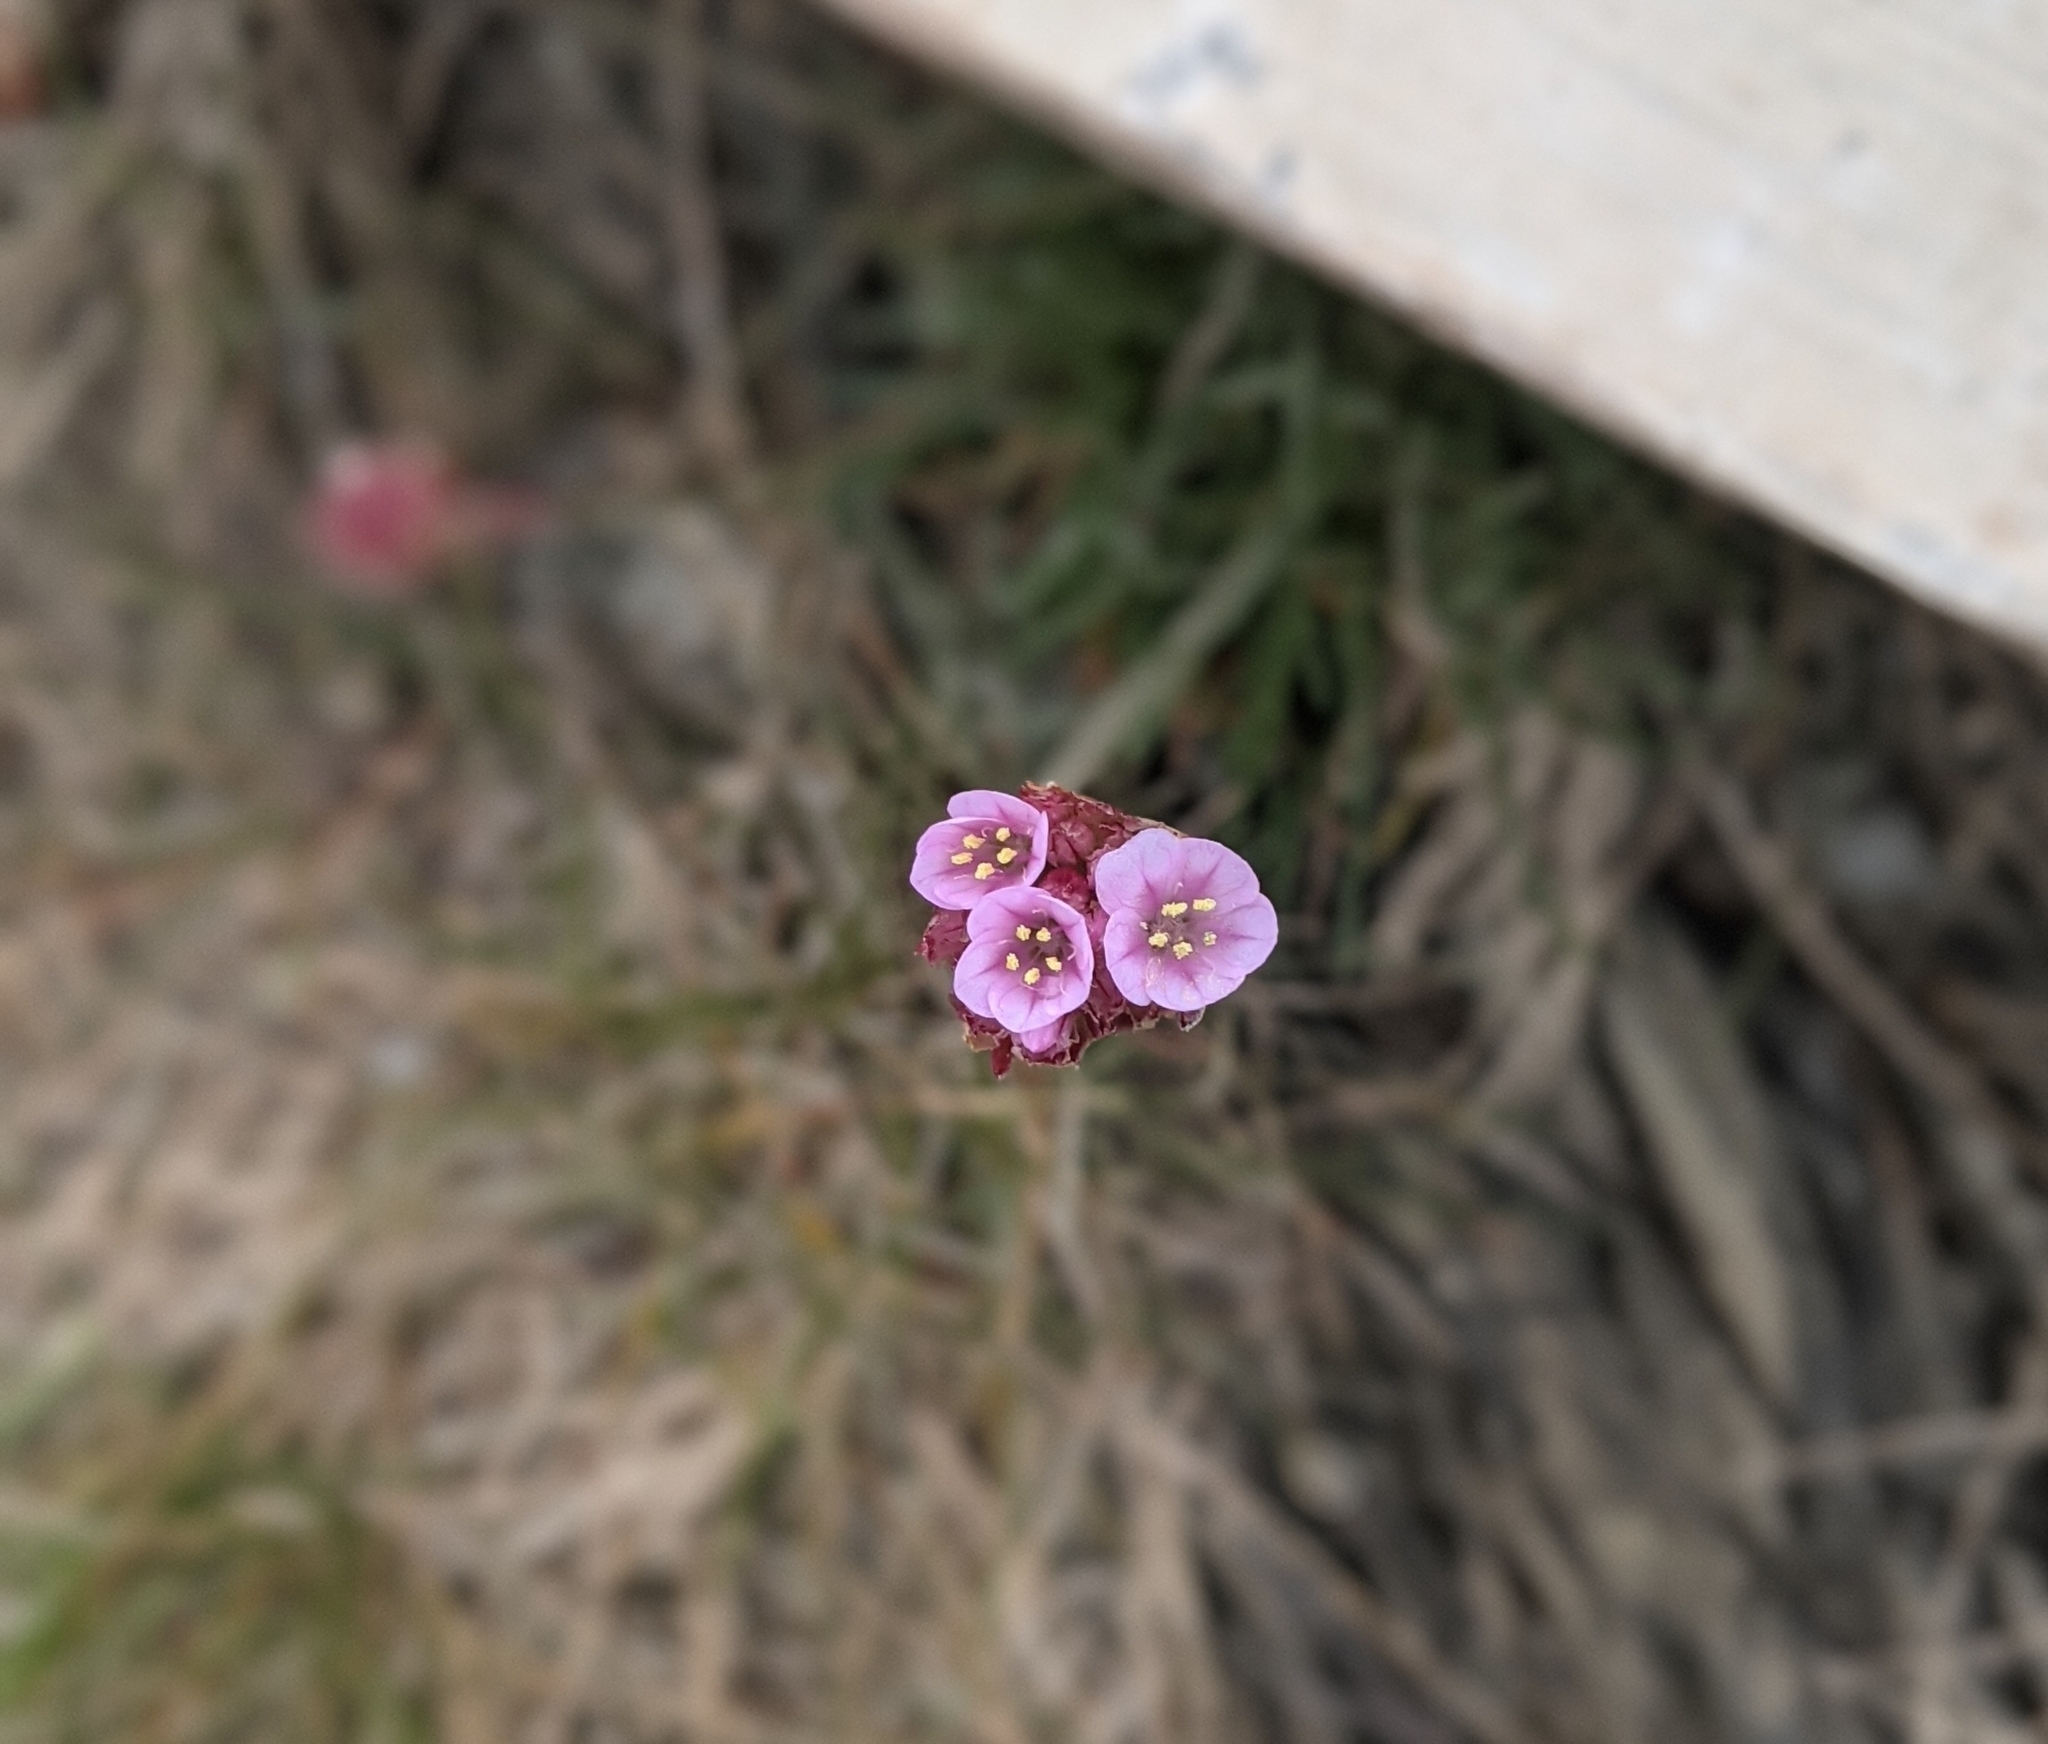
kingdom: Plantae
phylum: Tracheophyta
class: Magnoliopsida
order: Caryophyllales
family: Plumbaginaceae
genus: Armeria
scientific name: Armeria maritima
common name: Thrift
